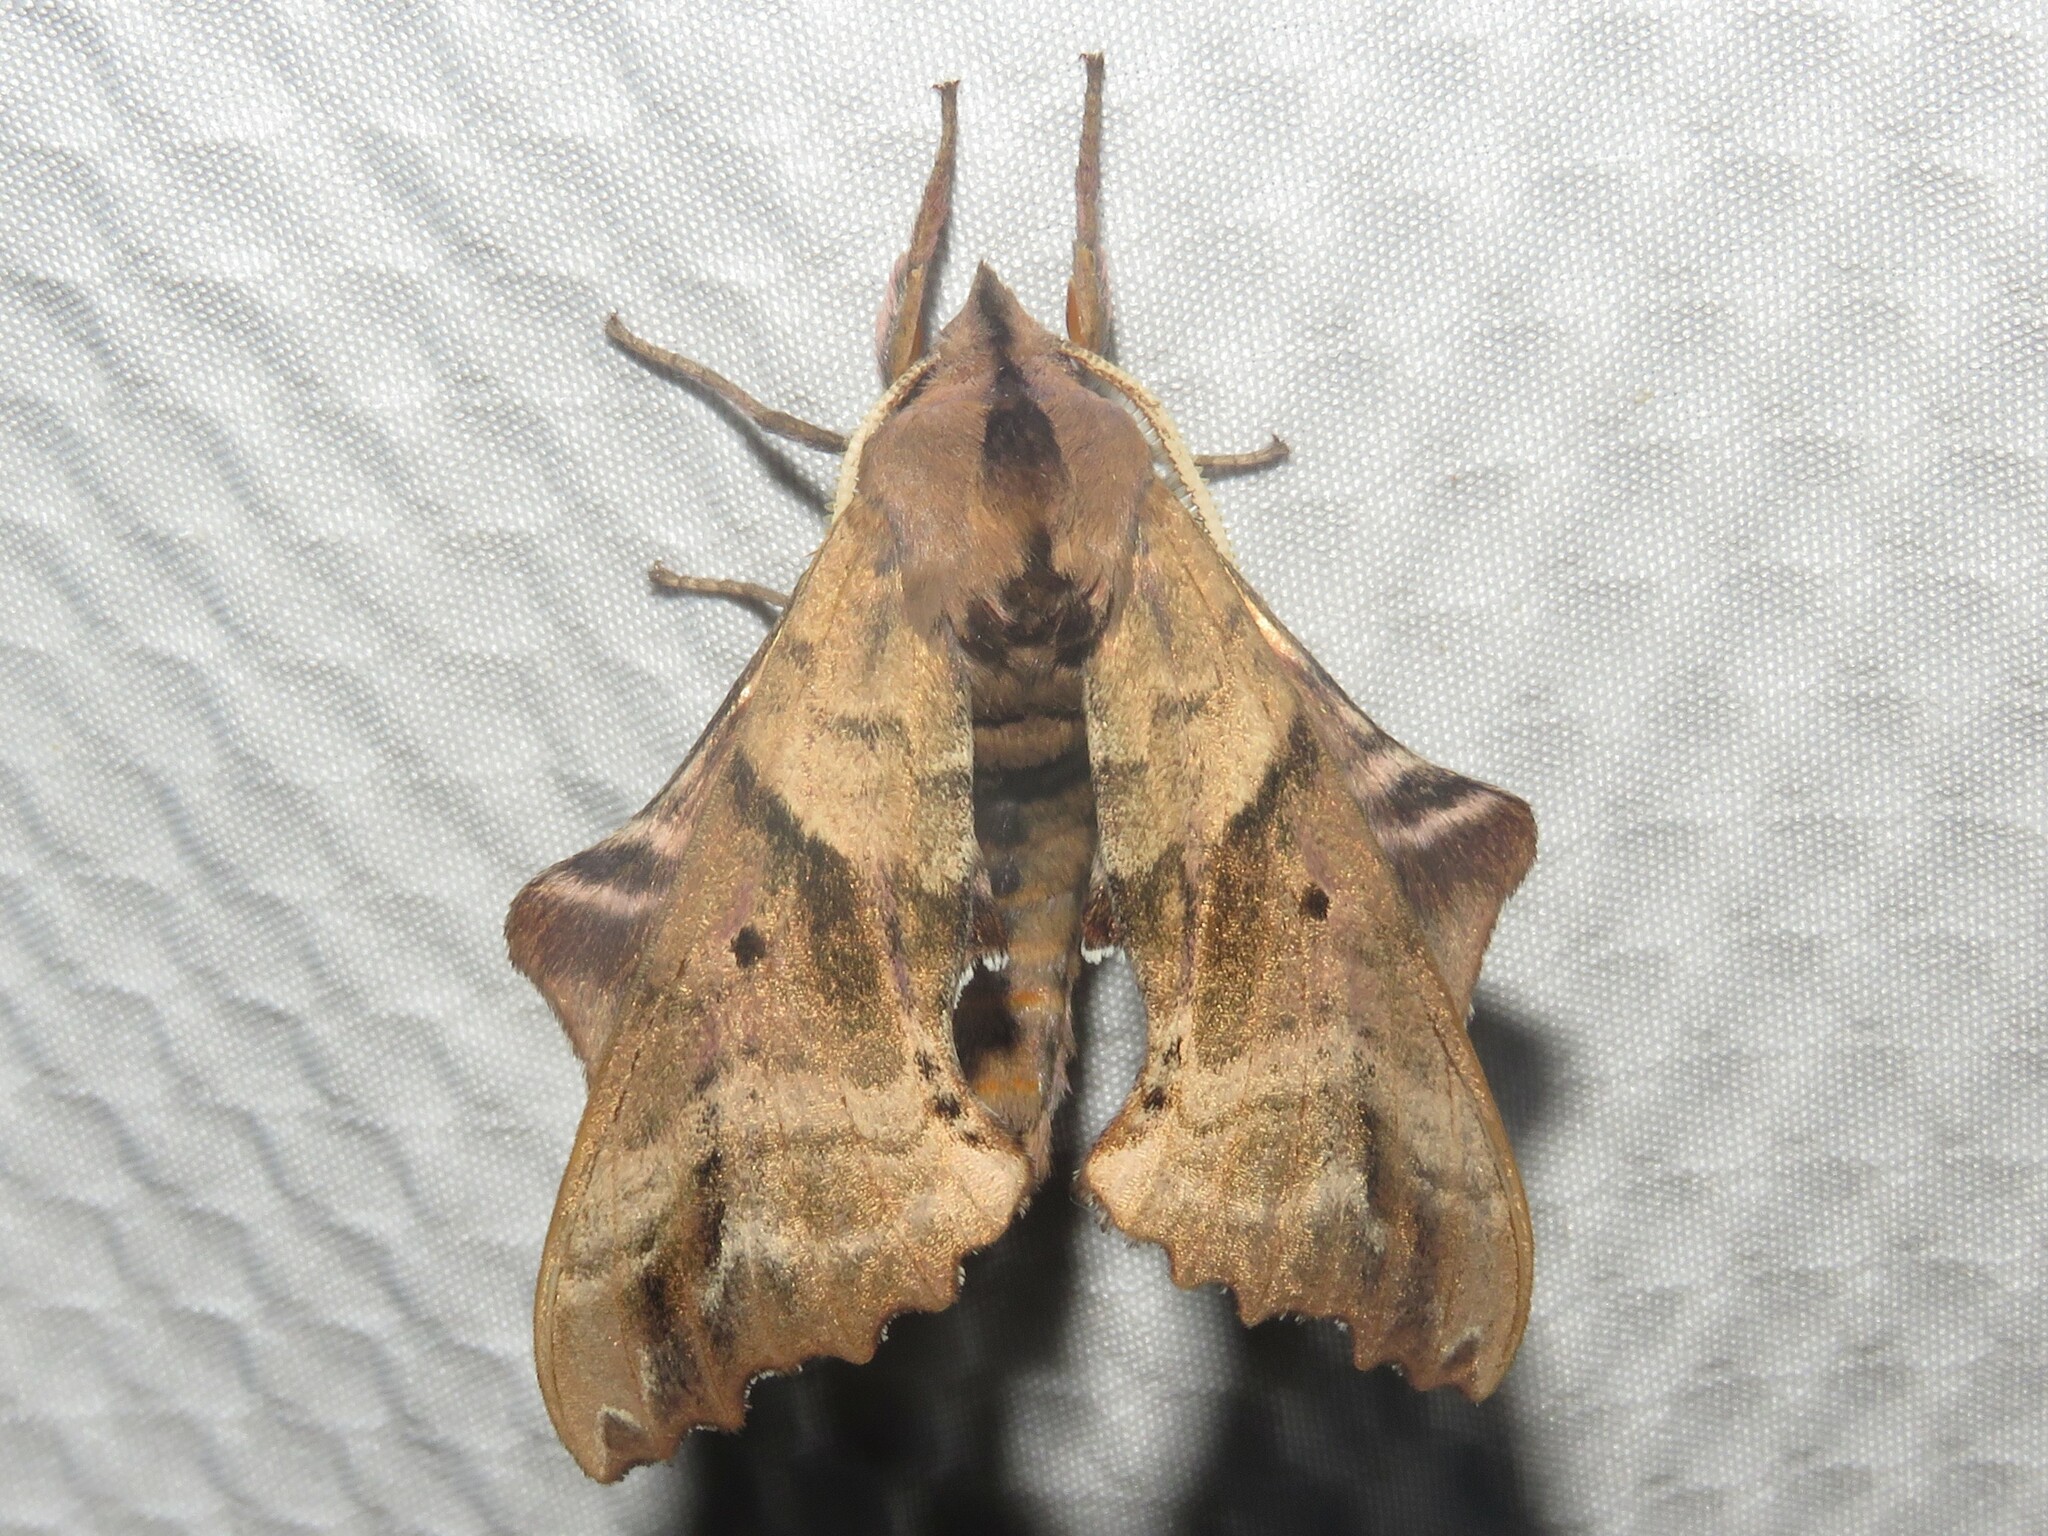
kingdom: Animalia
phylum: Arthropoda
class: Insecta
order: Lepidoptera
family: Sphingidae
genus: Paonias
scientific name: Paonias excaecata
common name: Blind-eyed sphinx
